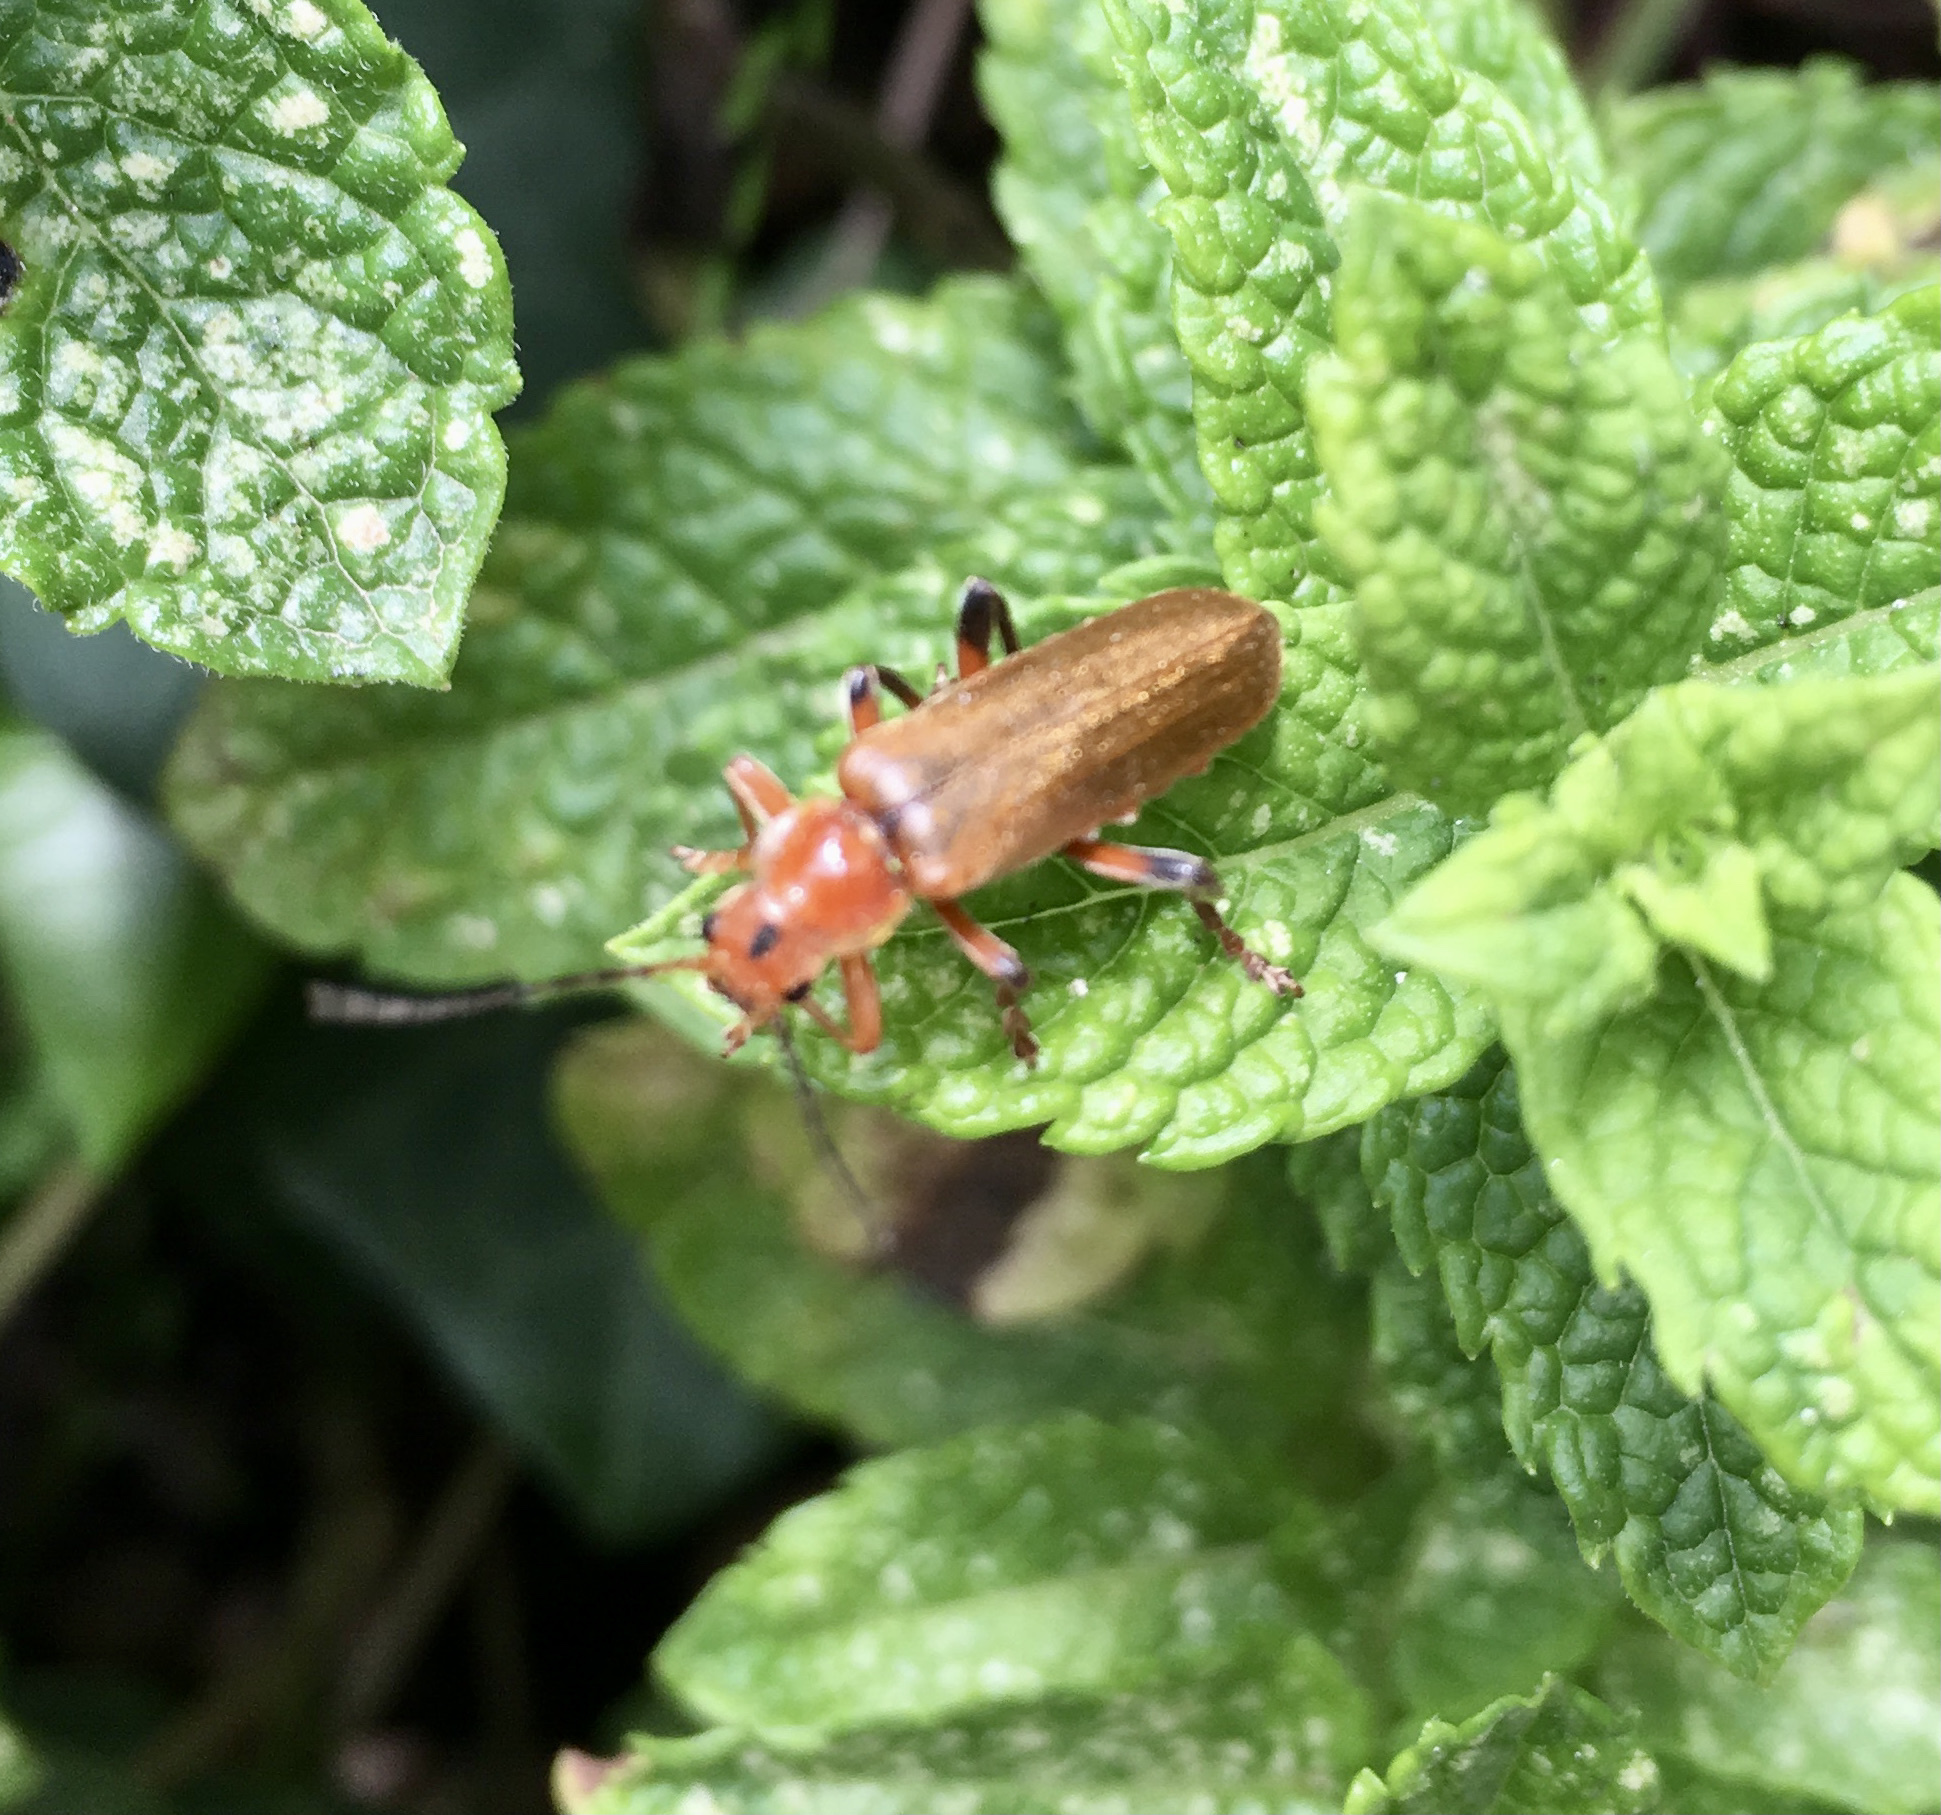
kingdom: Animalia
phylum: Arthropoda
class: Insecta
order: Coleoptera
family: Cantharidae
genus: Cantharis
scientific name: Cantharis livida
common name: Livid soldier beetle
